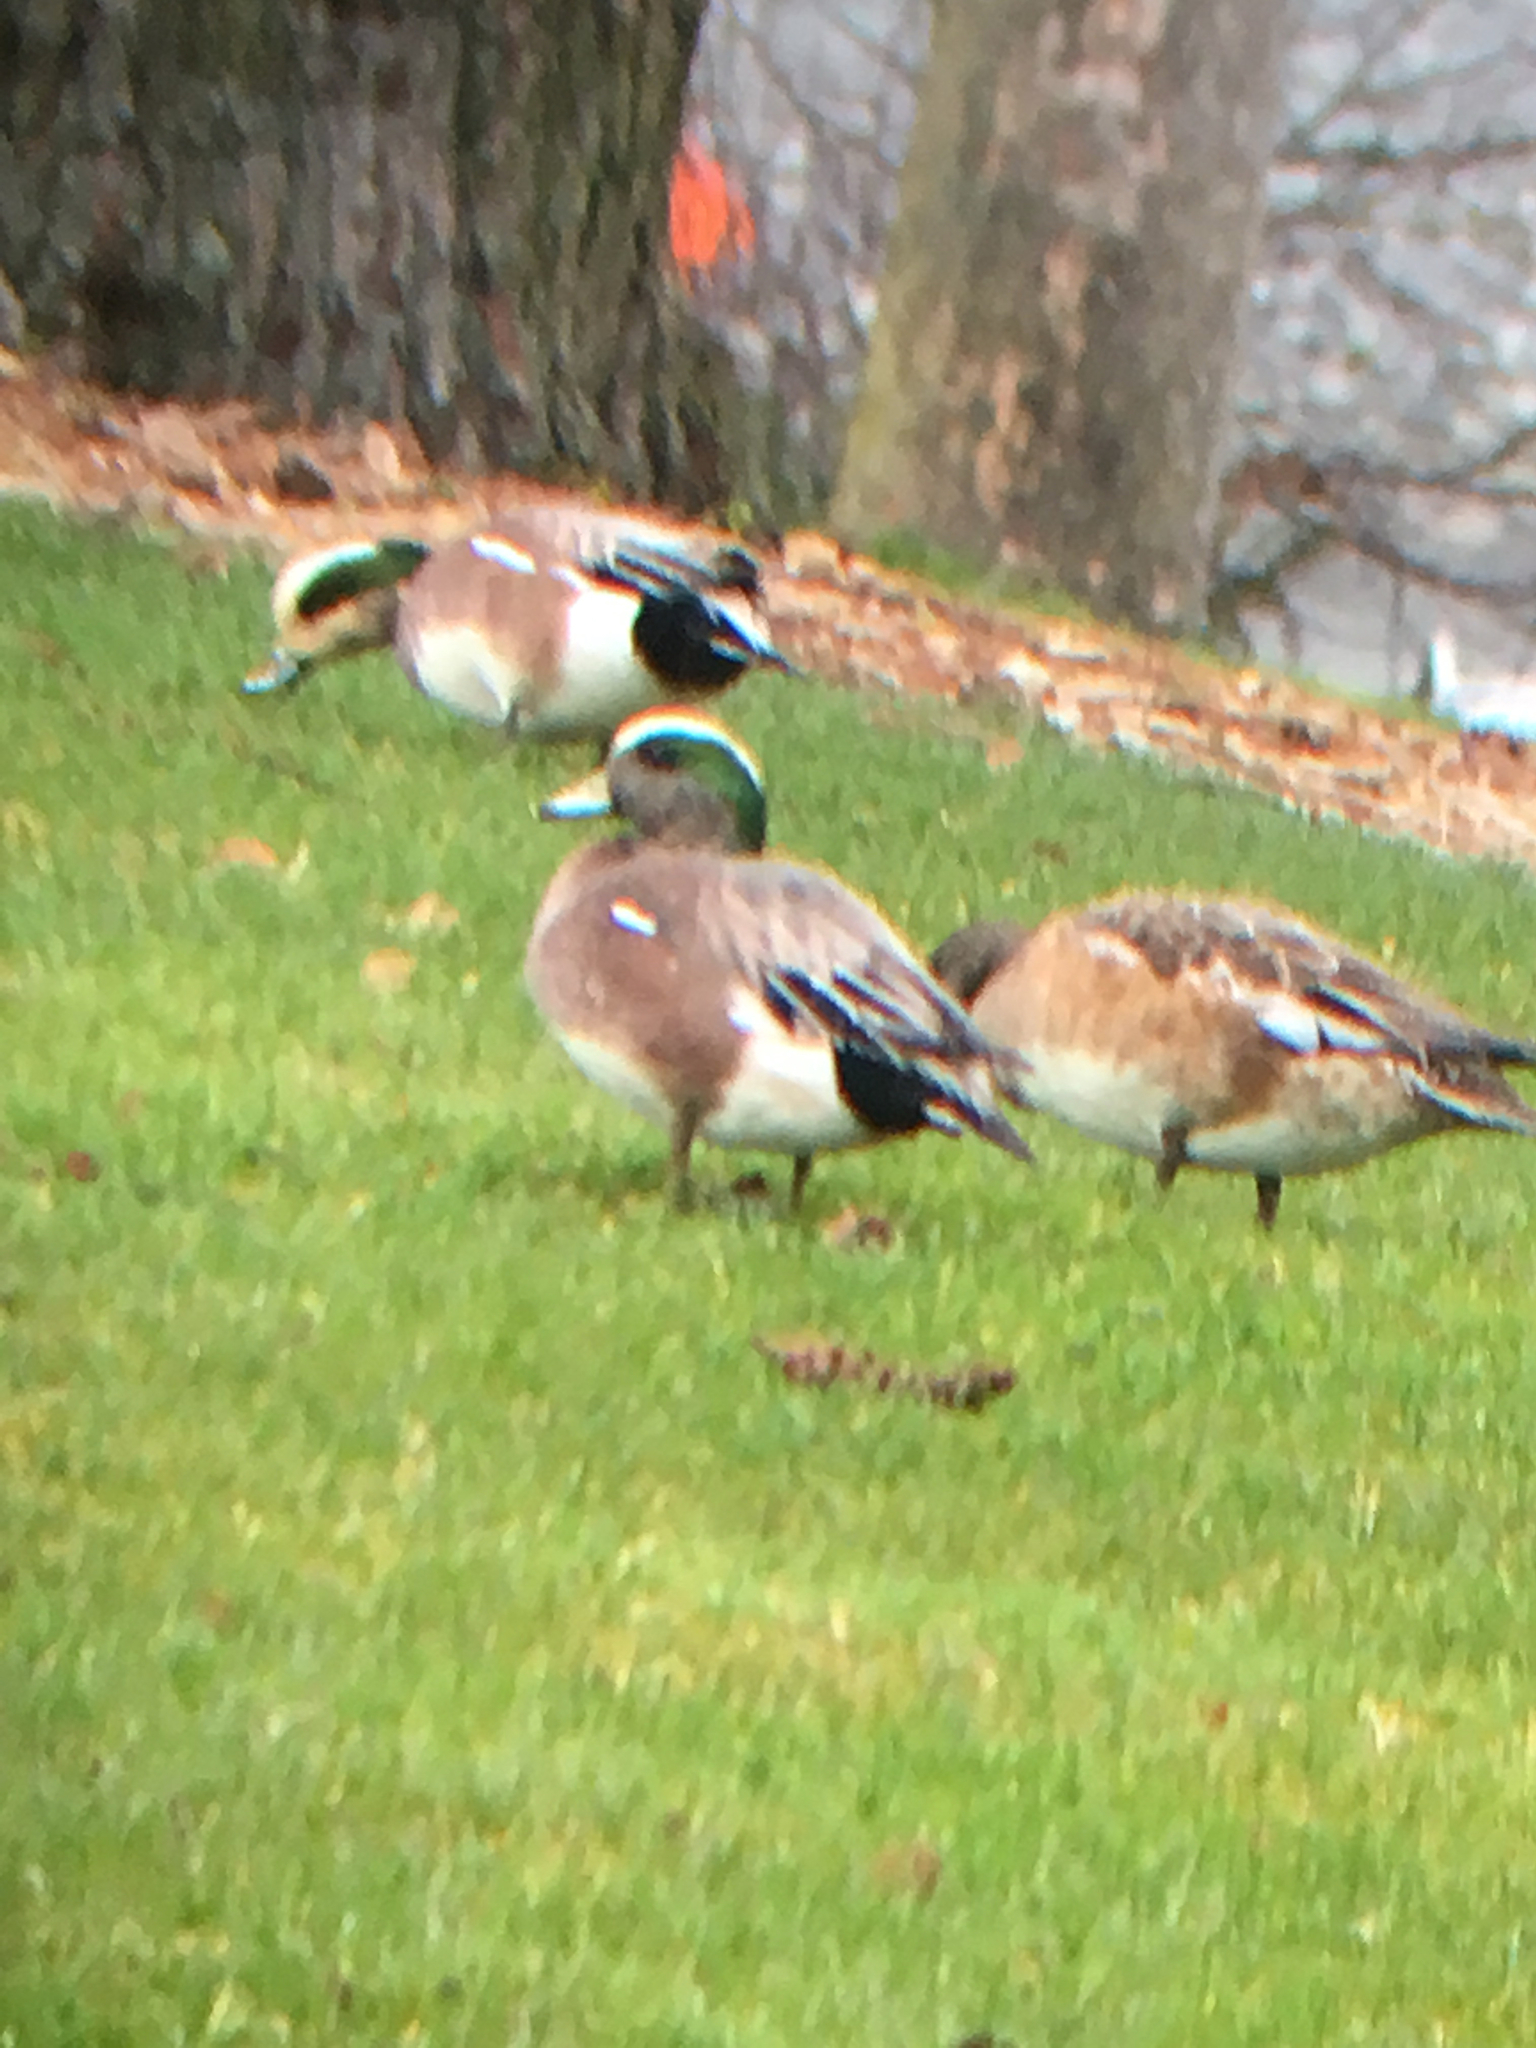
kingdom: Animalia
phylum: Chordata
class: Aves
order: Anseriformes
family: Anatidae
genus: Mareca
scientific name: Mareca americana
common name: American wigeon
